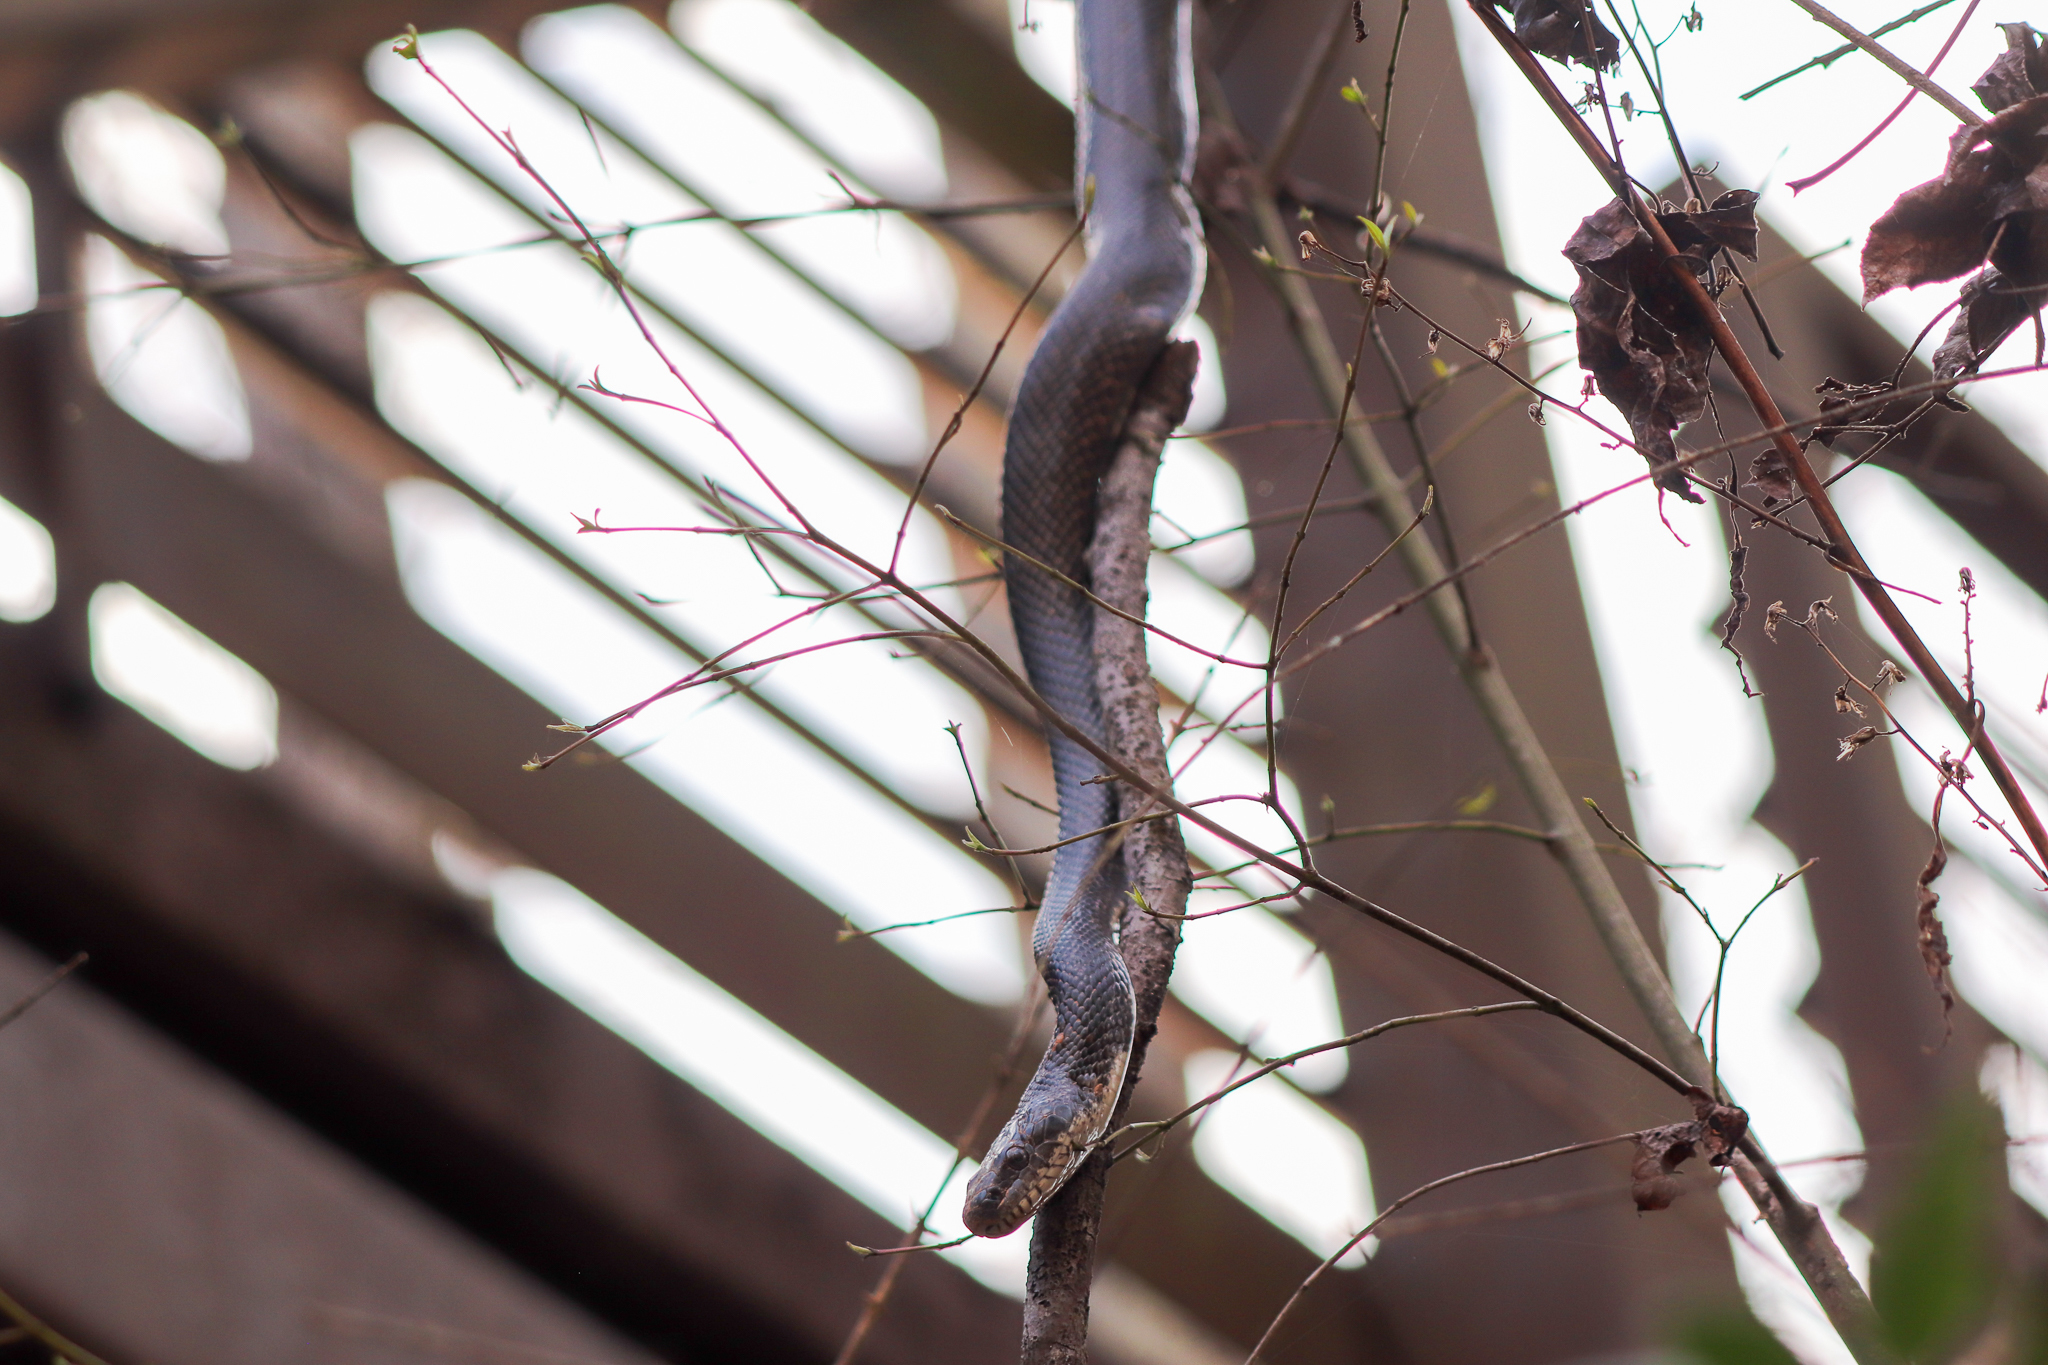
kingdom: Animalia
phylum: Chordata
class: Squamata
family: Colubridae
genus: Pantherophis
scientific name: Pantherophis alleghaniensis
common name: Eastern rat snake
